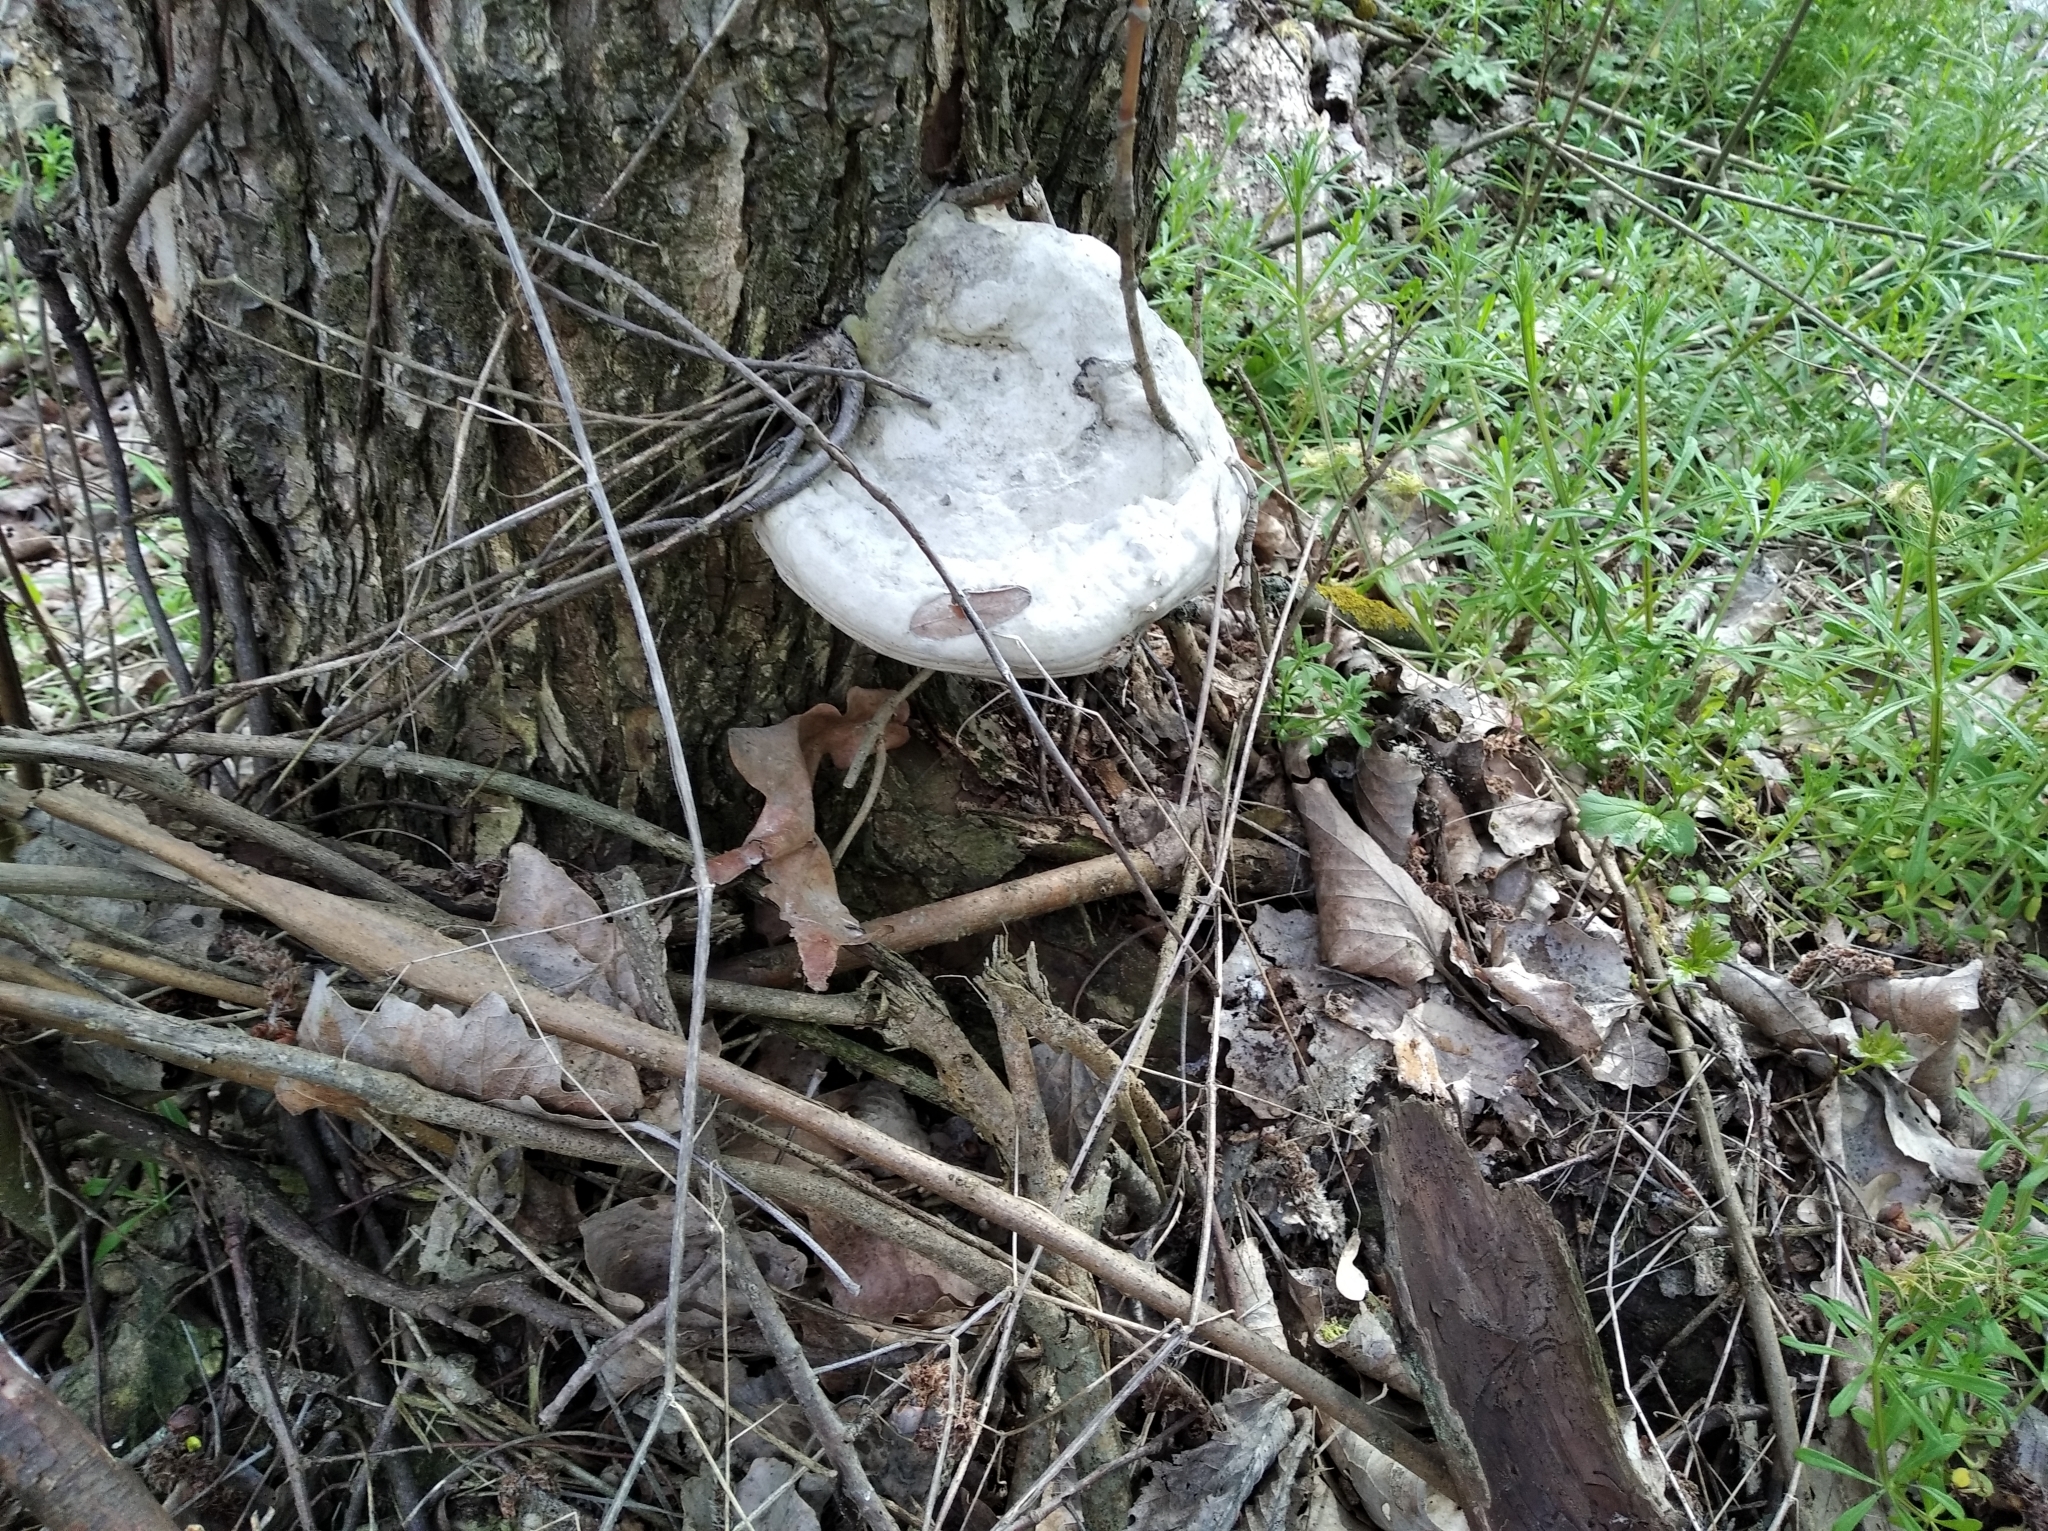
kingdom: Fungi
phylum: Basidiomycota
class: Agaricomycetes
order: Polyporales
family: Polyporaceae
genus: Fomes
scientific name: Fomes fomentarius
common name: Hoof fungus
